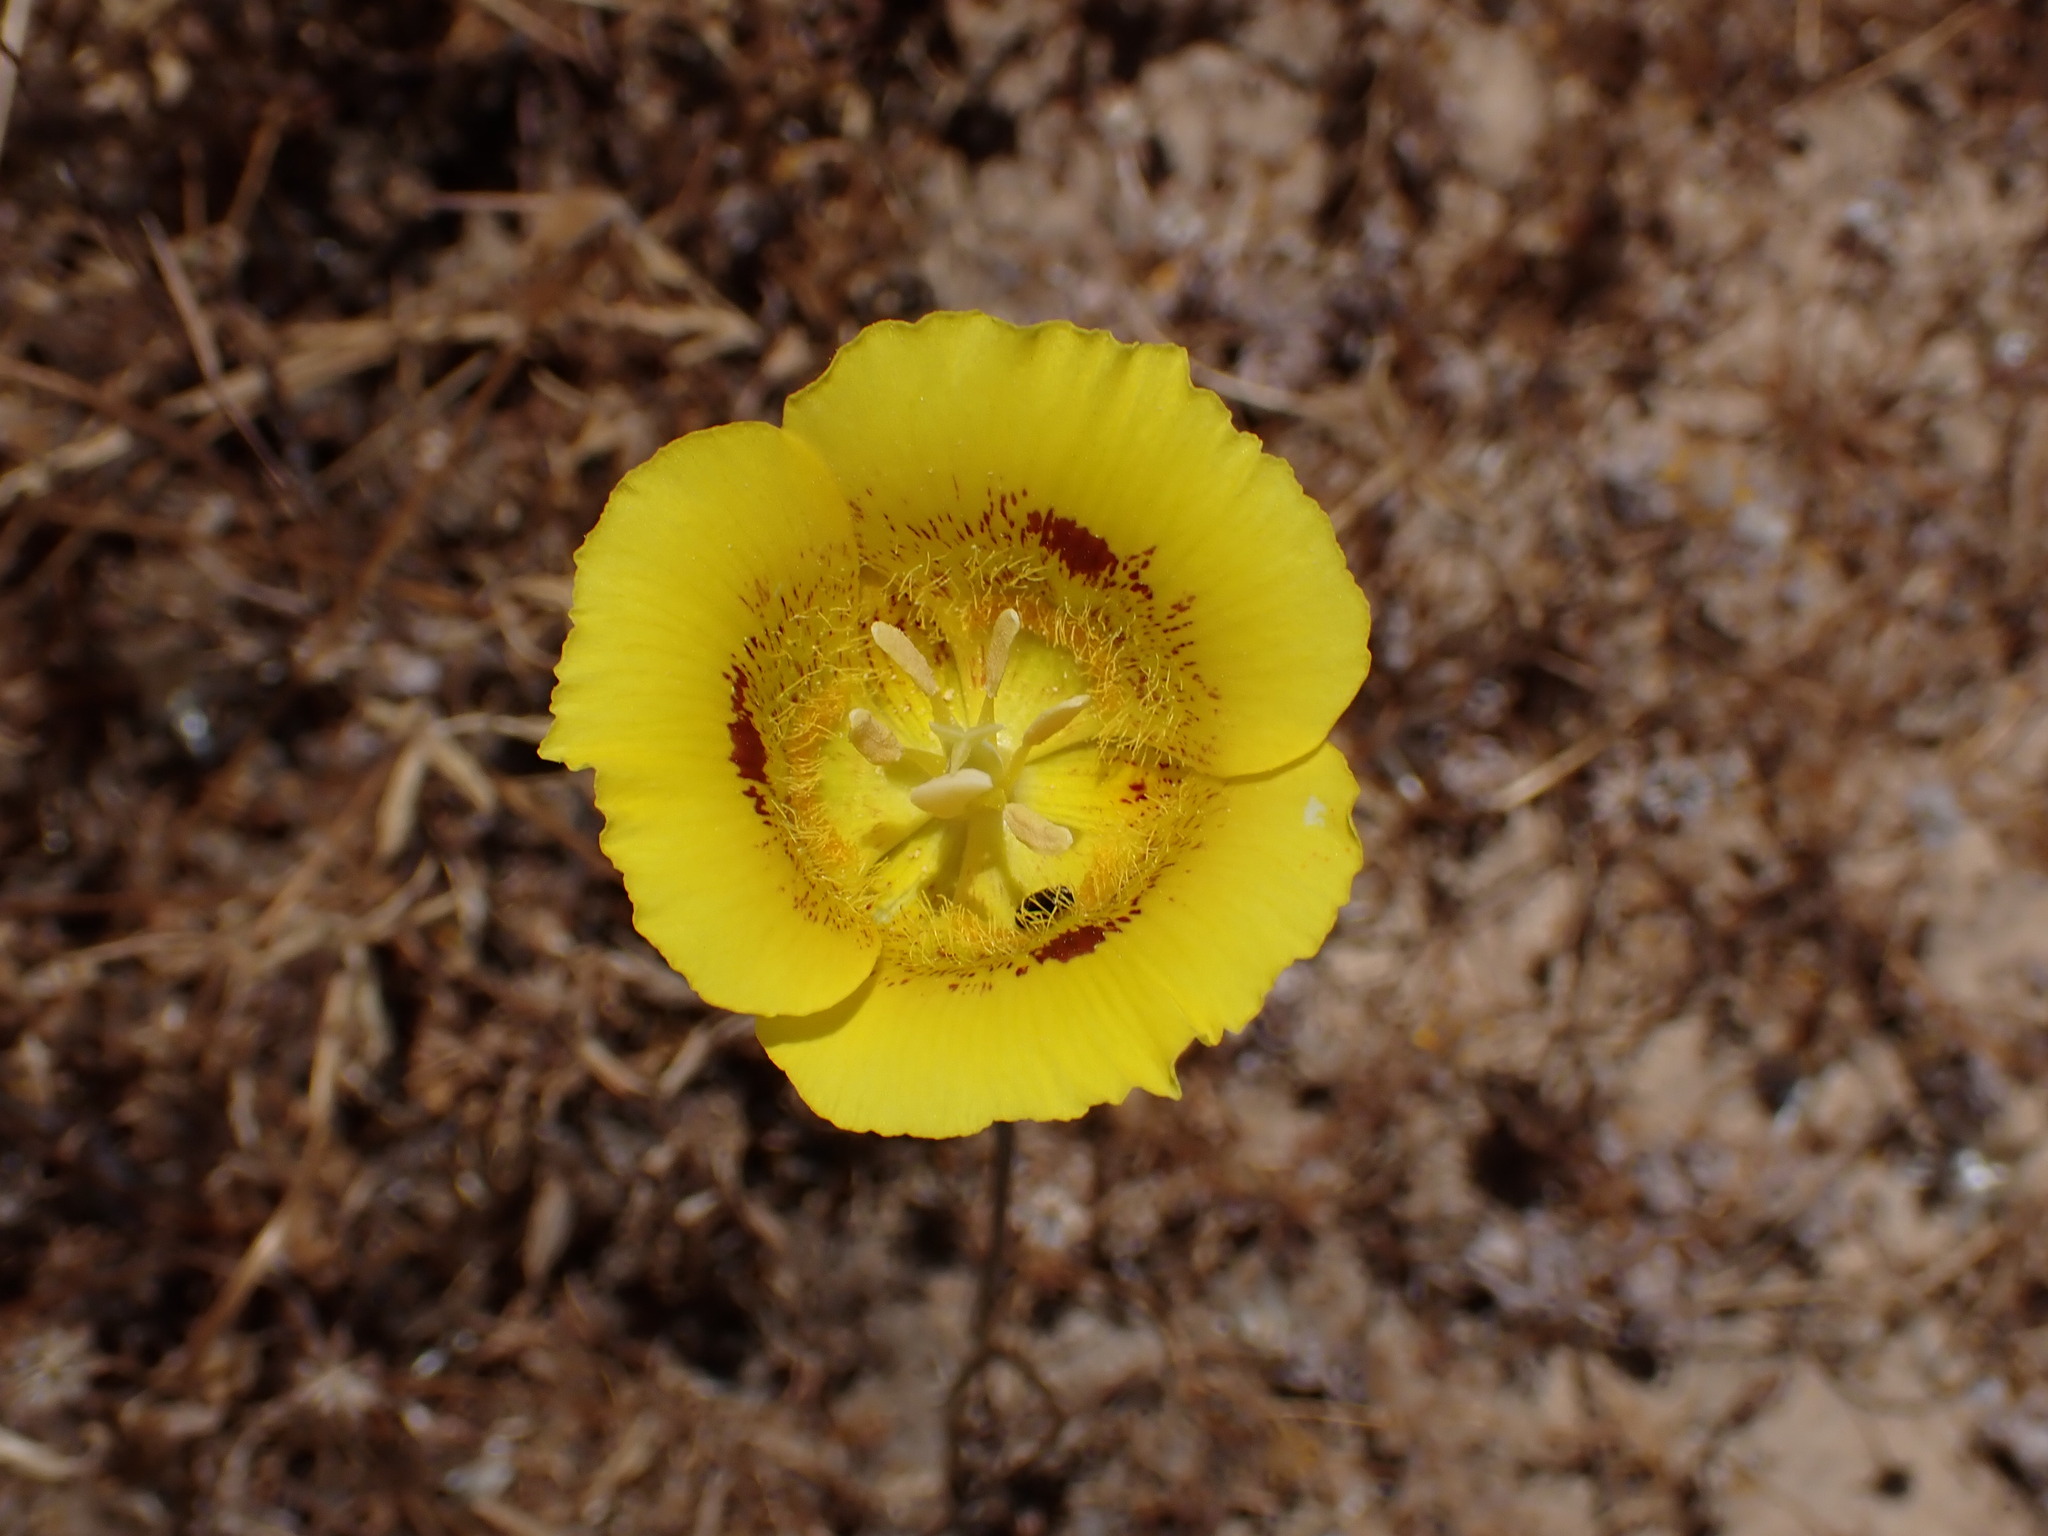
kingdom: Plantae
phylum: Tracheophyta
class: Liliopsida
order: Liliales
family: Liliaceae
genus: Calochortus
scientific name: Calochortus luteus
